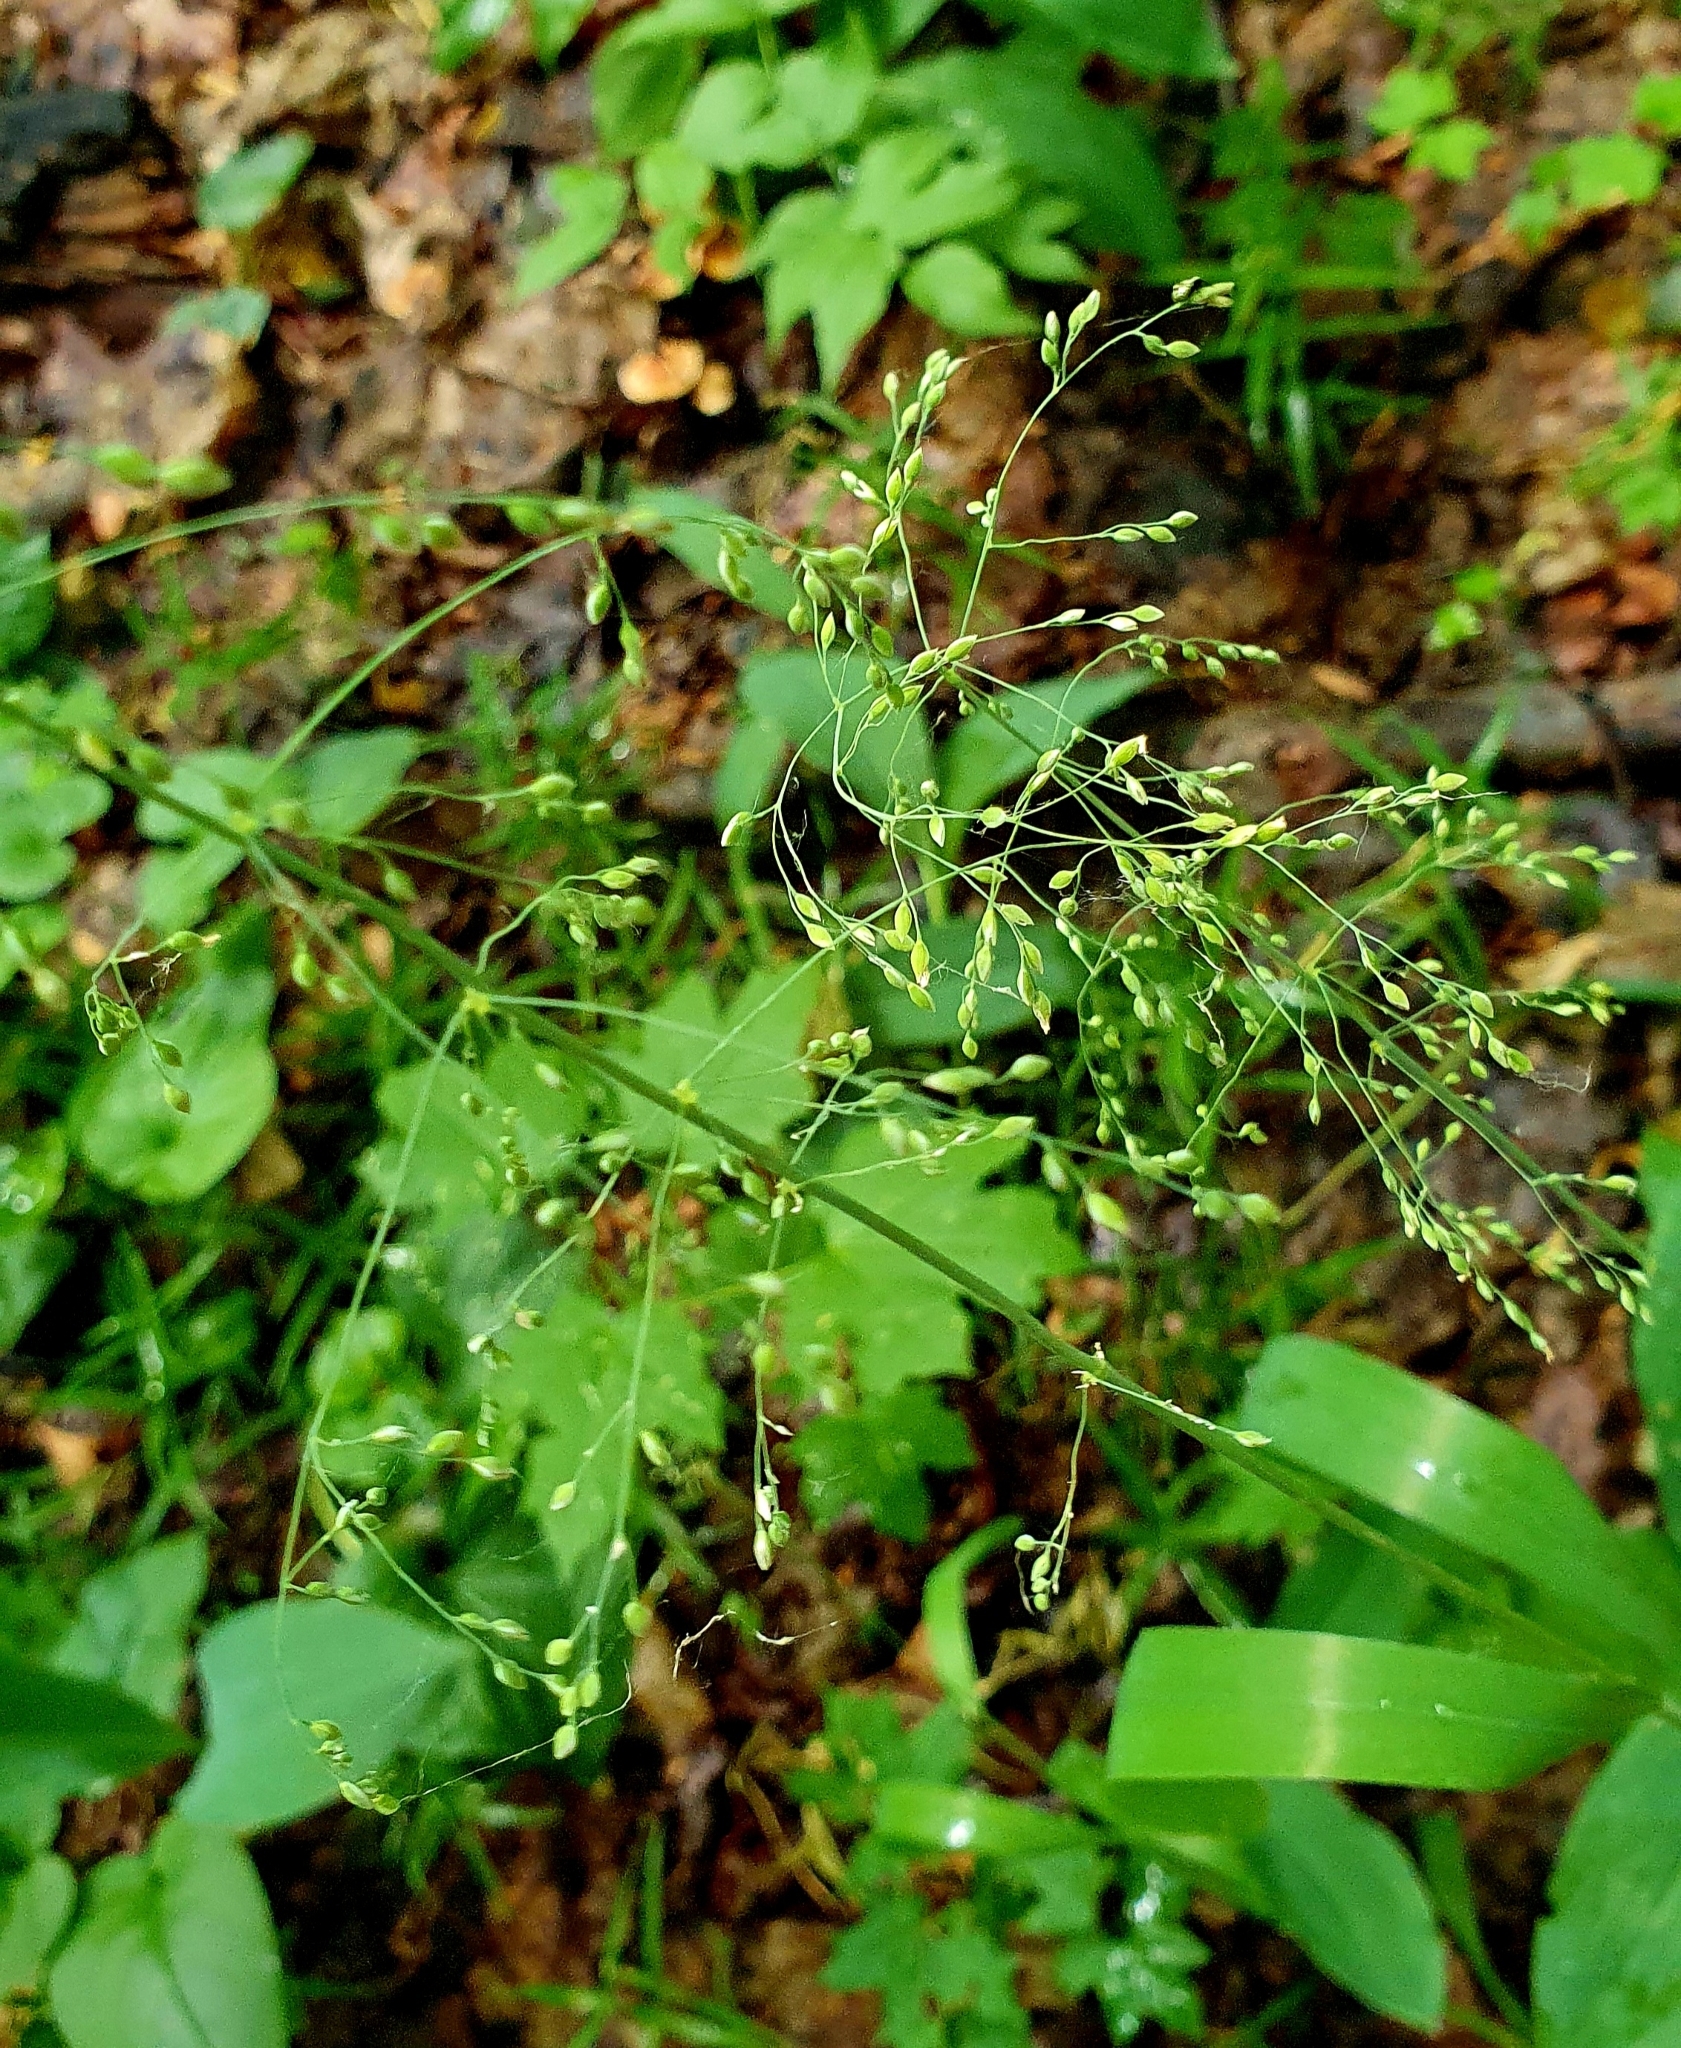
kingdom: Plantae
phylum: Tracheophyta
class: Liliopsida
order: Poales
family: Poaceae
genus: Milium
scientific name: Milium effusum
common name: Wood millet
